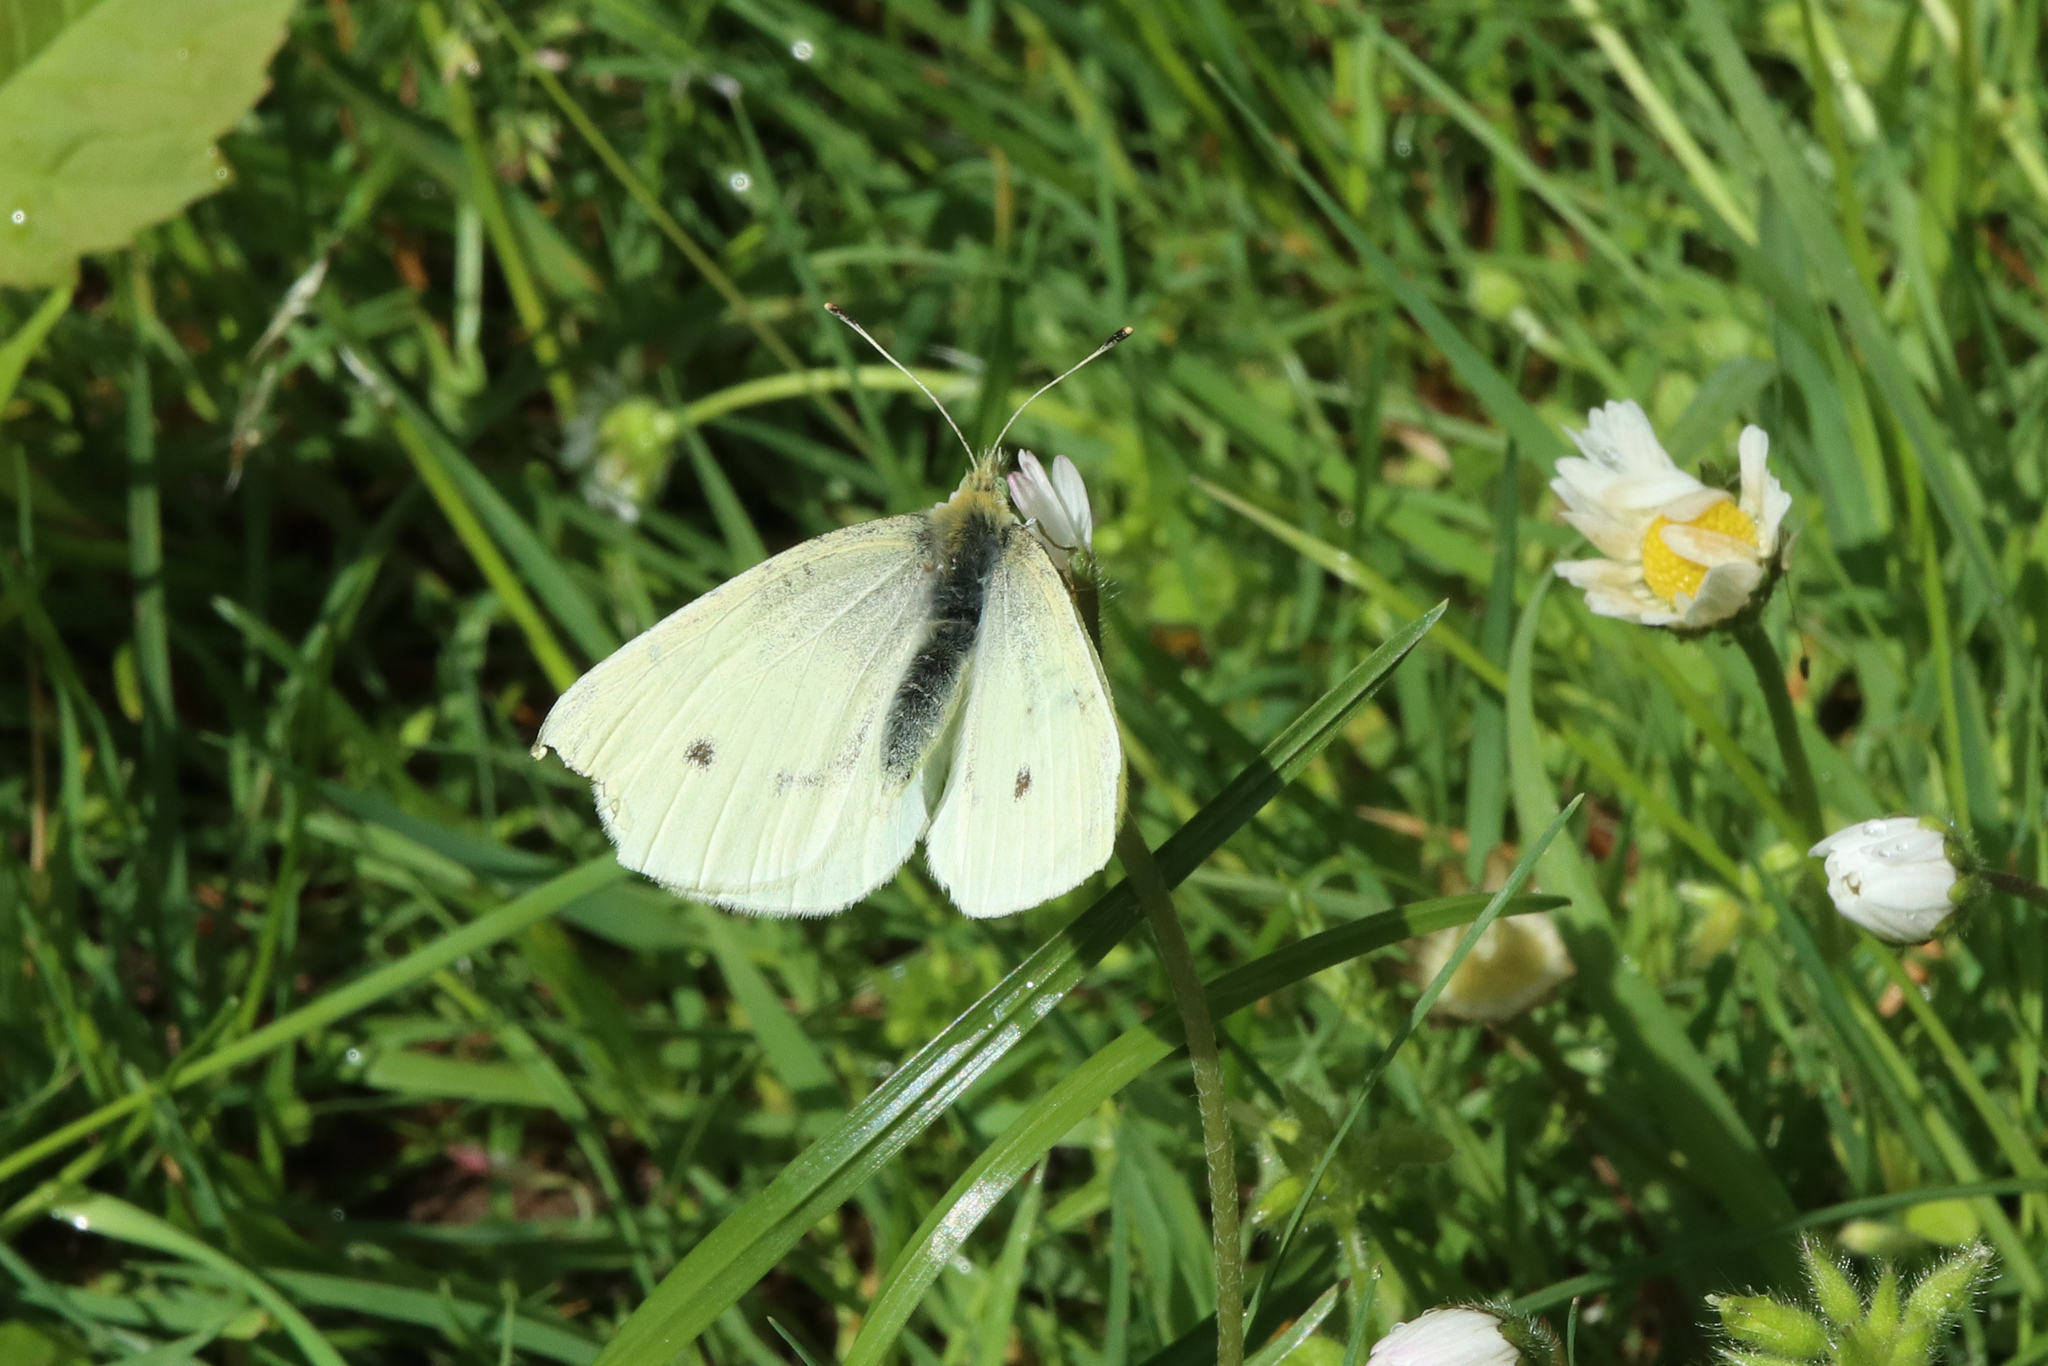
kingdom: Animalia
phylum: Arthropoda
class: Insecta
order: Lepidoptera
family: Pieridae
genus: Pieris
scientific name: Pieris rapae
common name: Small white
